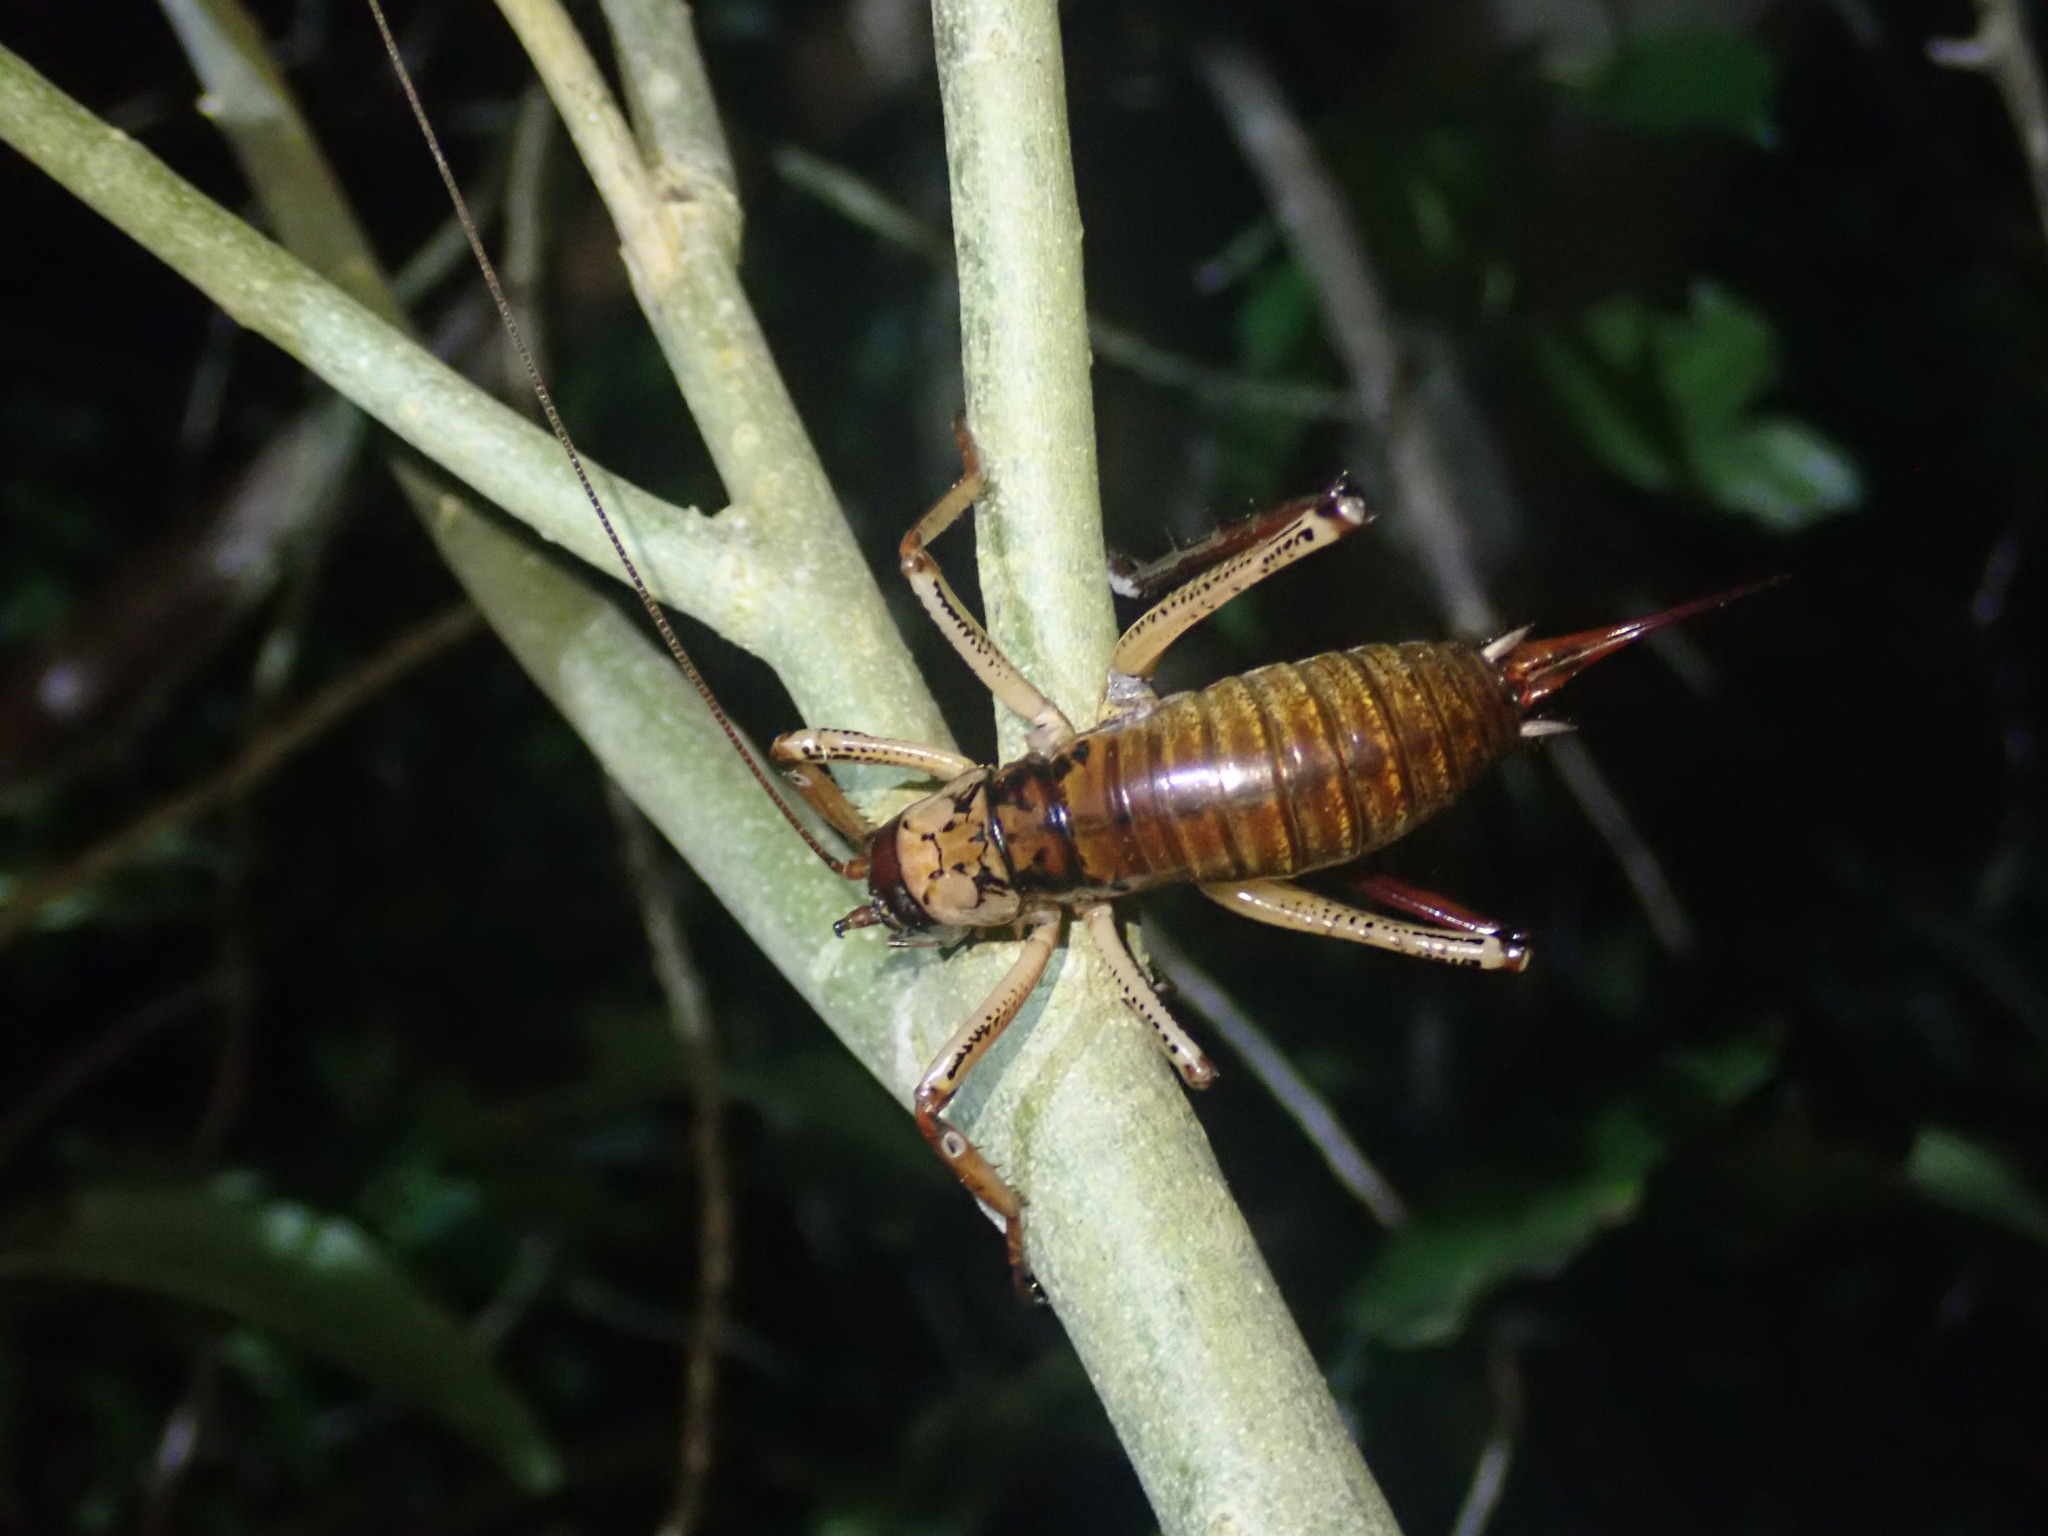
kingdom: Animalia
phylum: Arthropoda
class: Insecta
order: Orthoptera
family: Anostostomatidae
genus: Hemideina
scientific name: Hemideina thoracica
